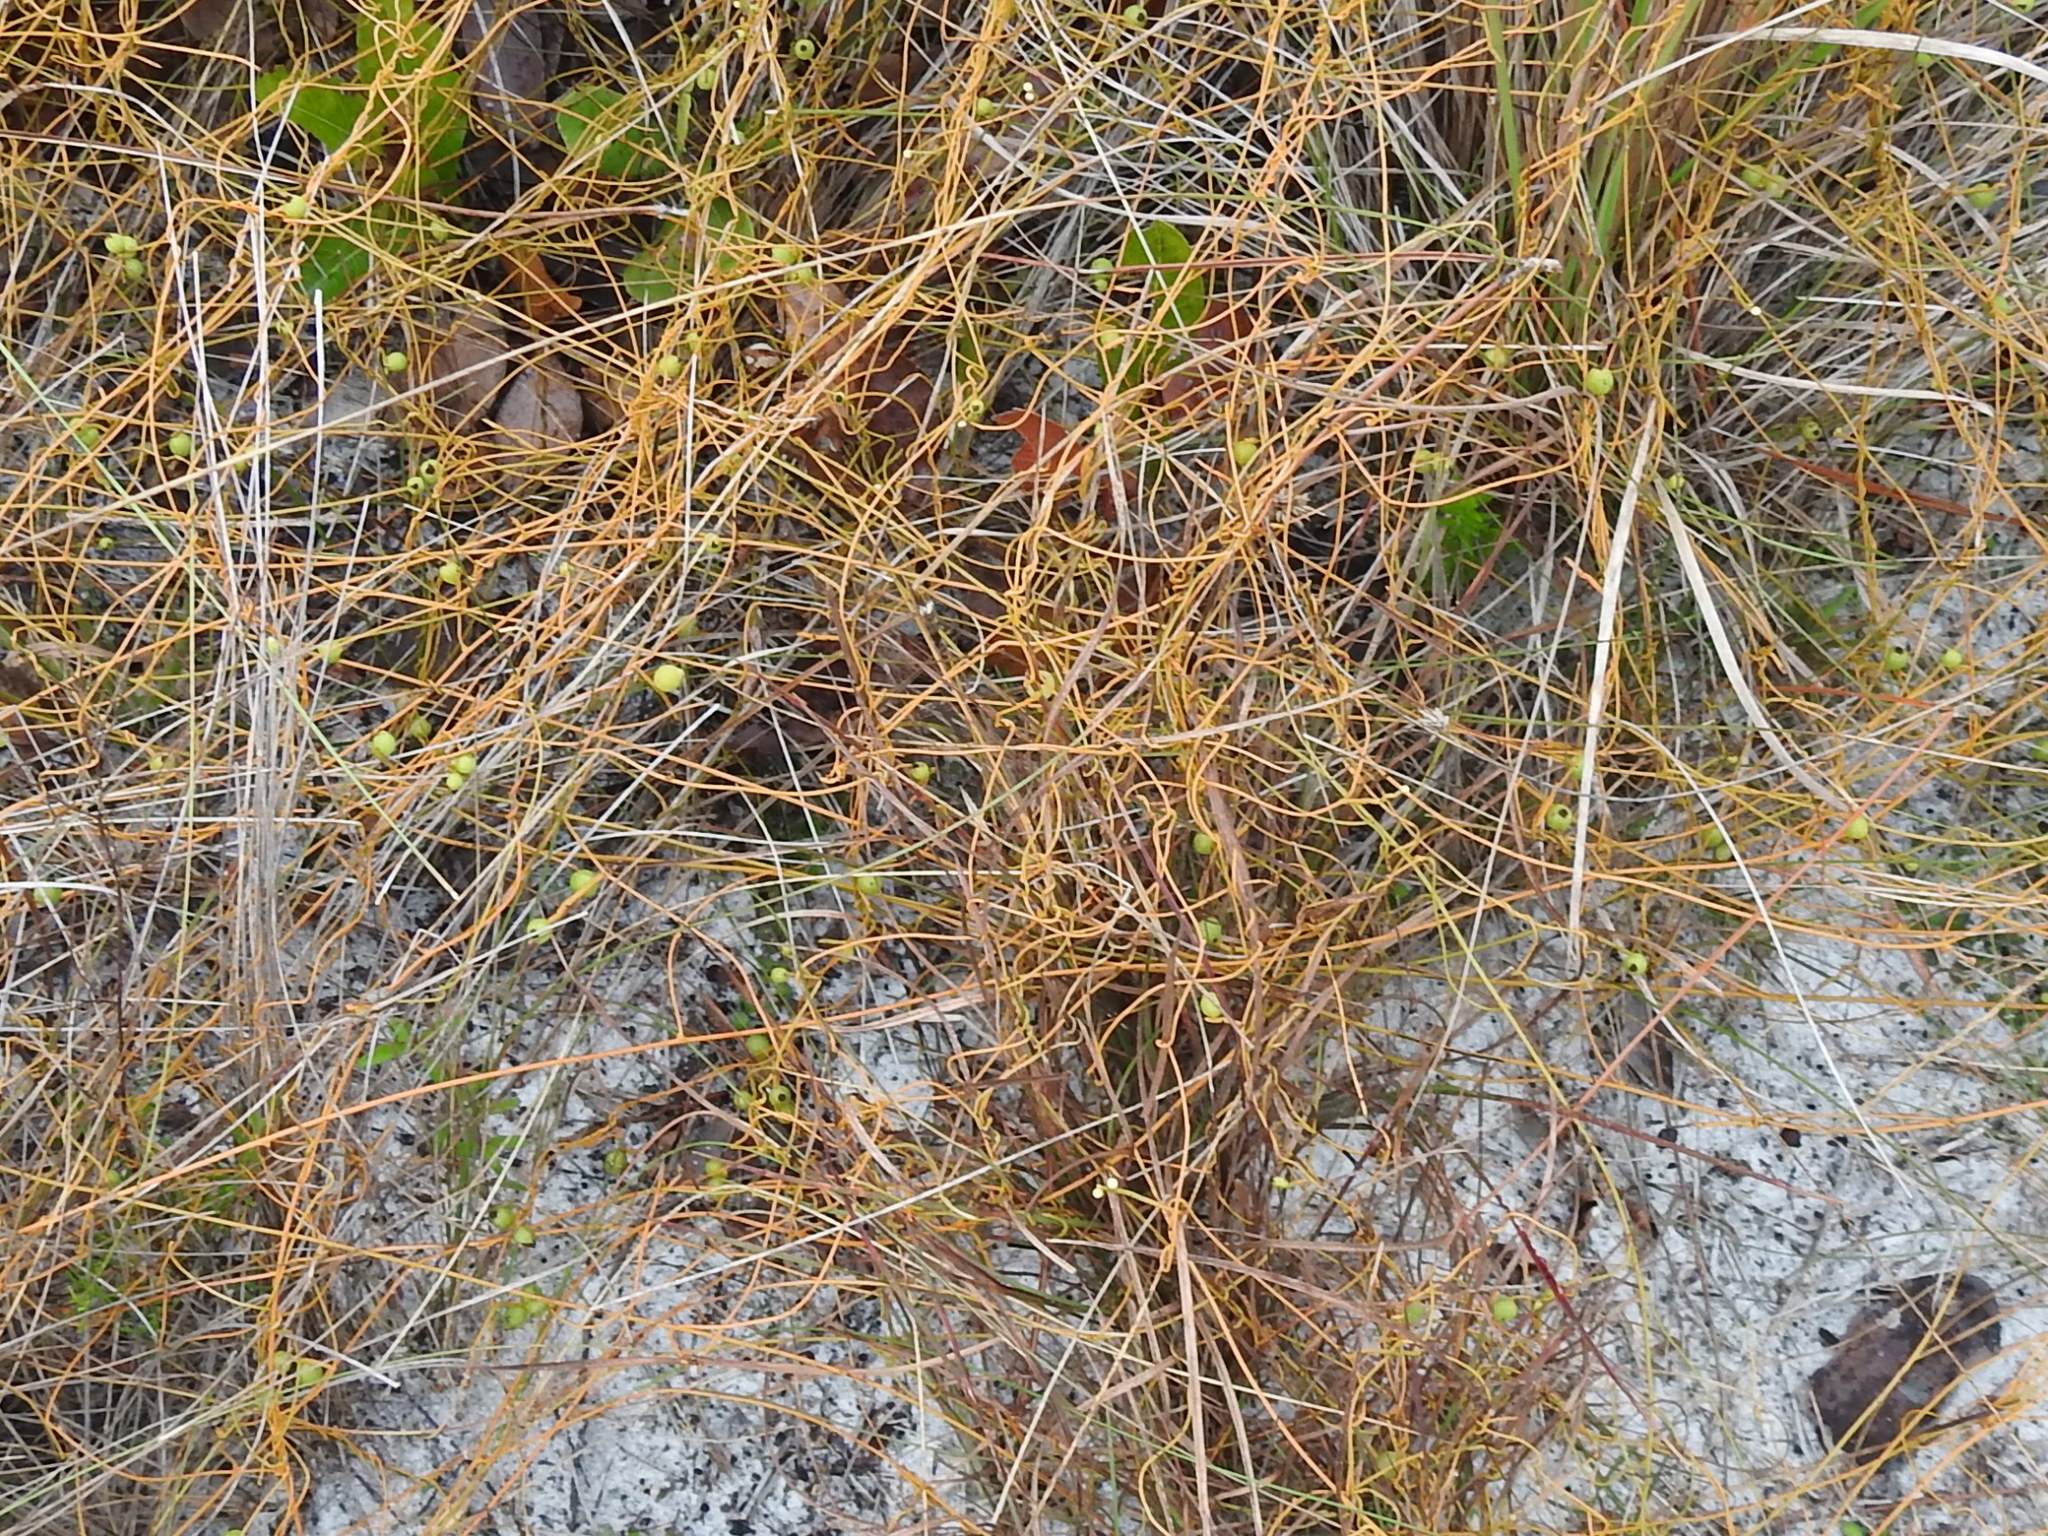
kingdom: Plantae
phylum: Tracheophyta
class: Magnoliopsida
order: Laurales
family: Lauraceae
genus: Cassytha
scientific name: Cassytha filiformis
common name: Dodder-laurel
